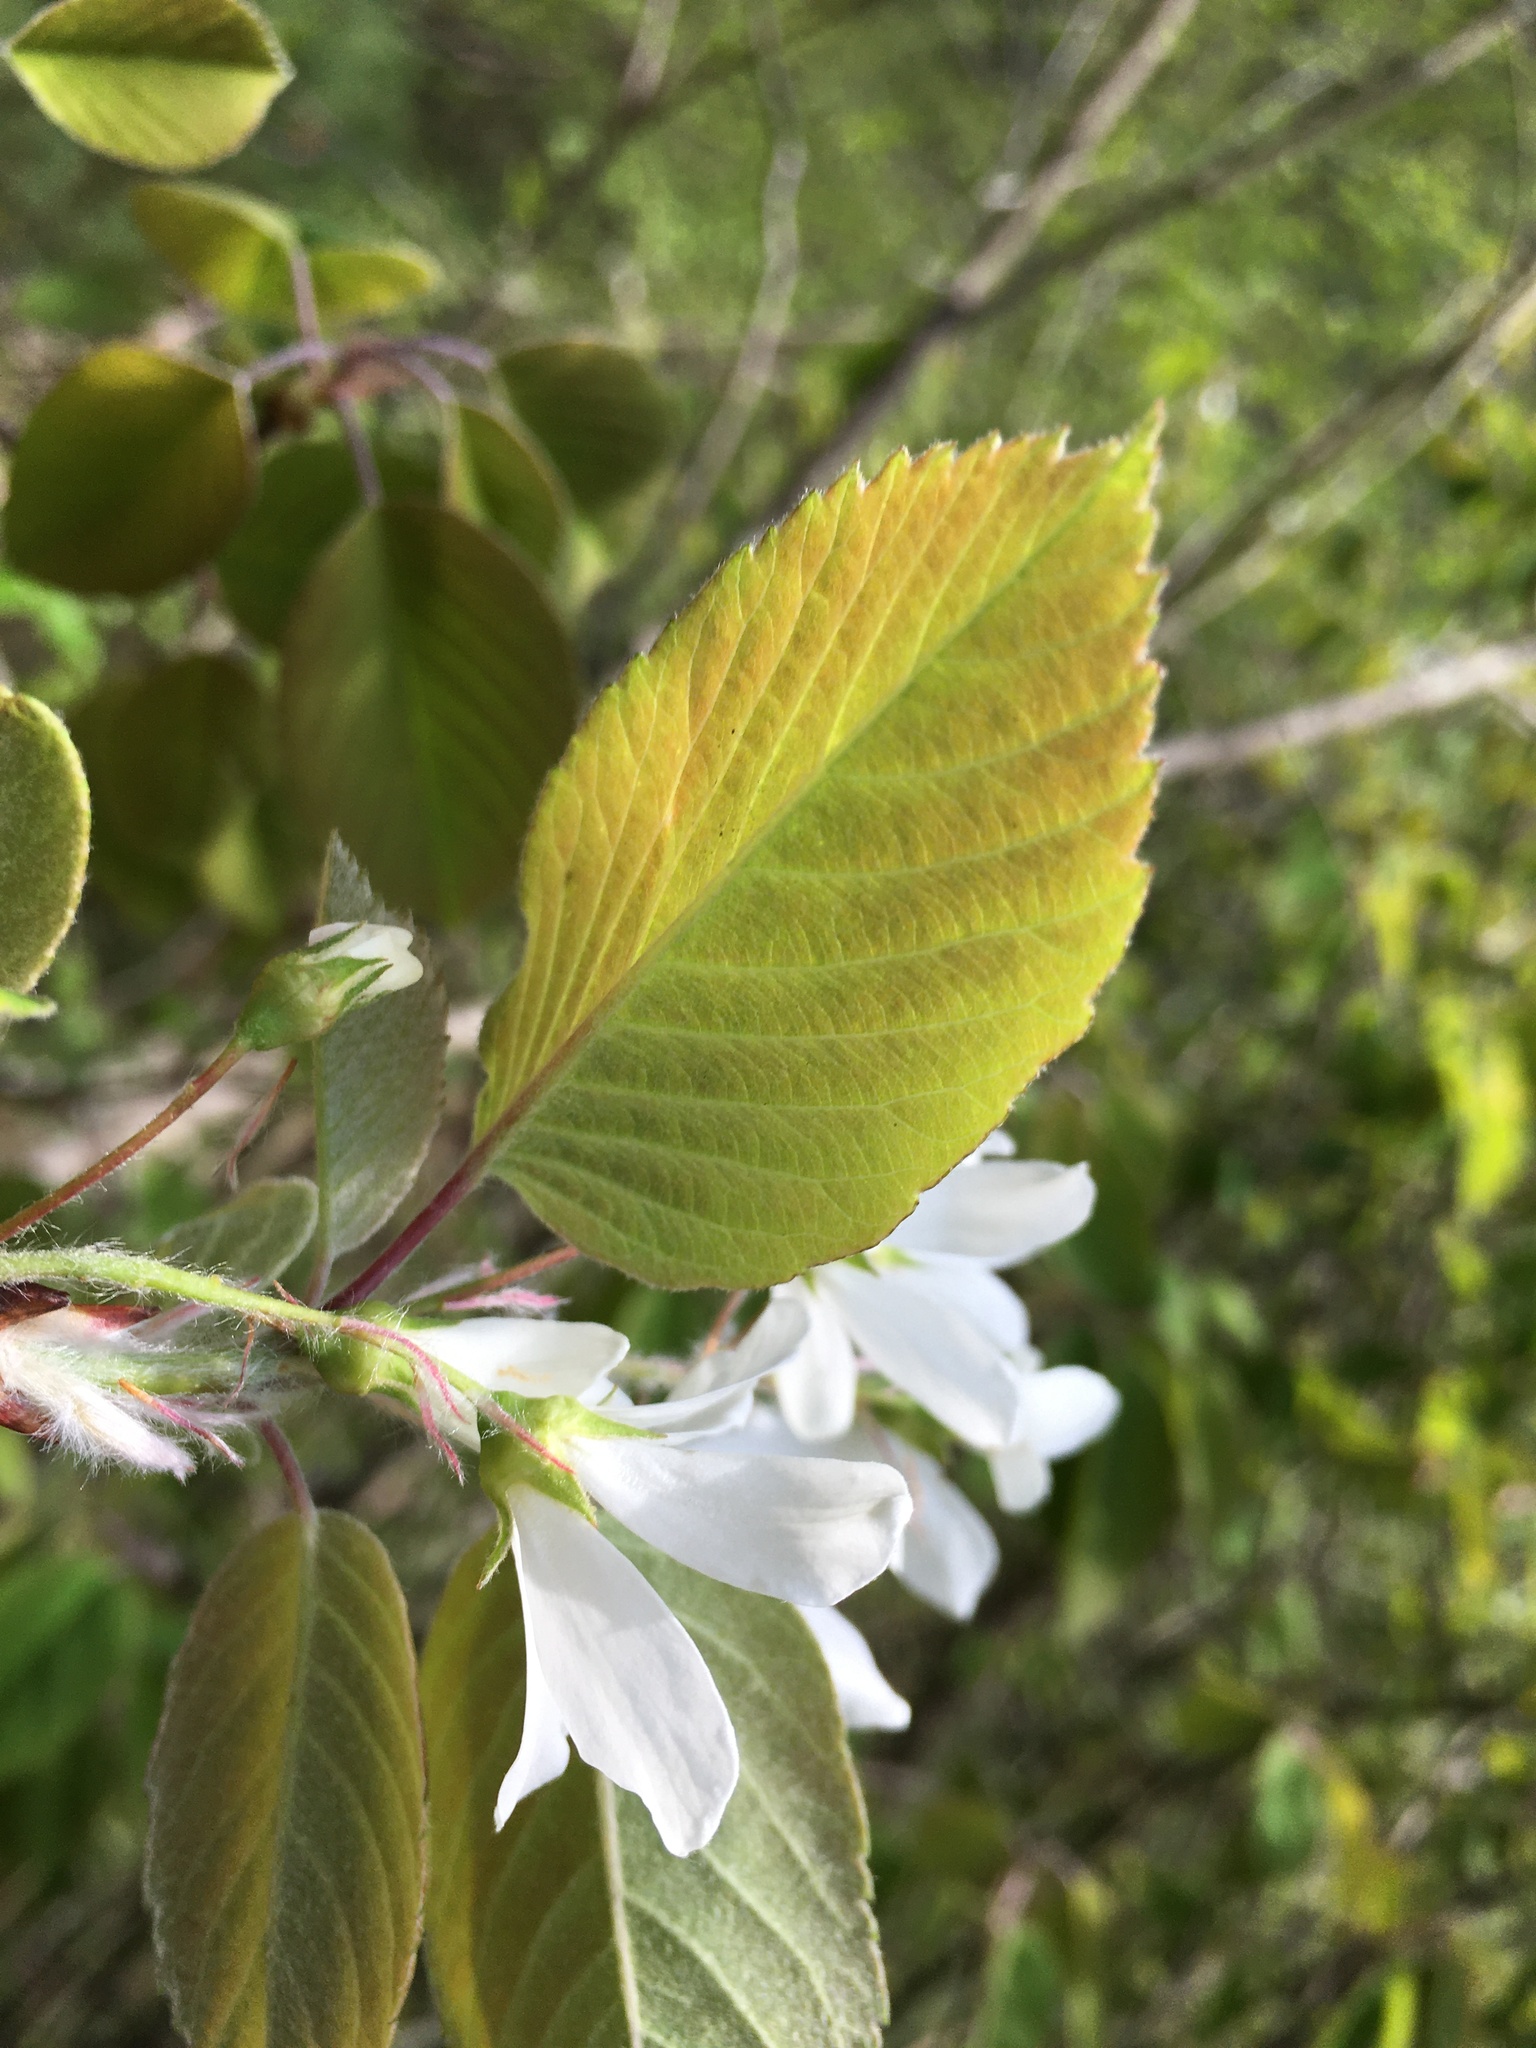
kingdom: Plantae
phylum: Tracheophyta
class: Magnoliopsida
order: Rosales
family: Rosaceae
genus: Amelanchier
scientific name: Amelanchier sanguinea
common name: Huron serviceberry
